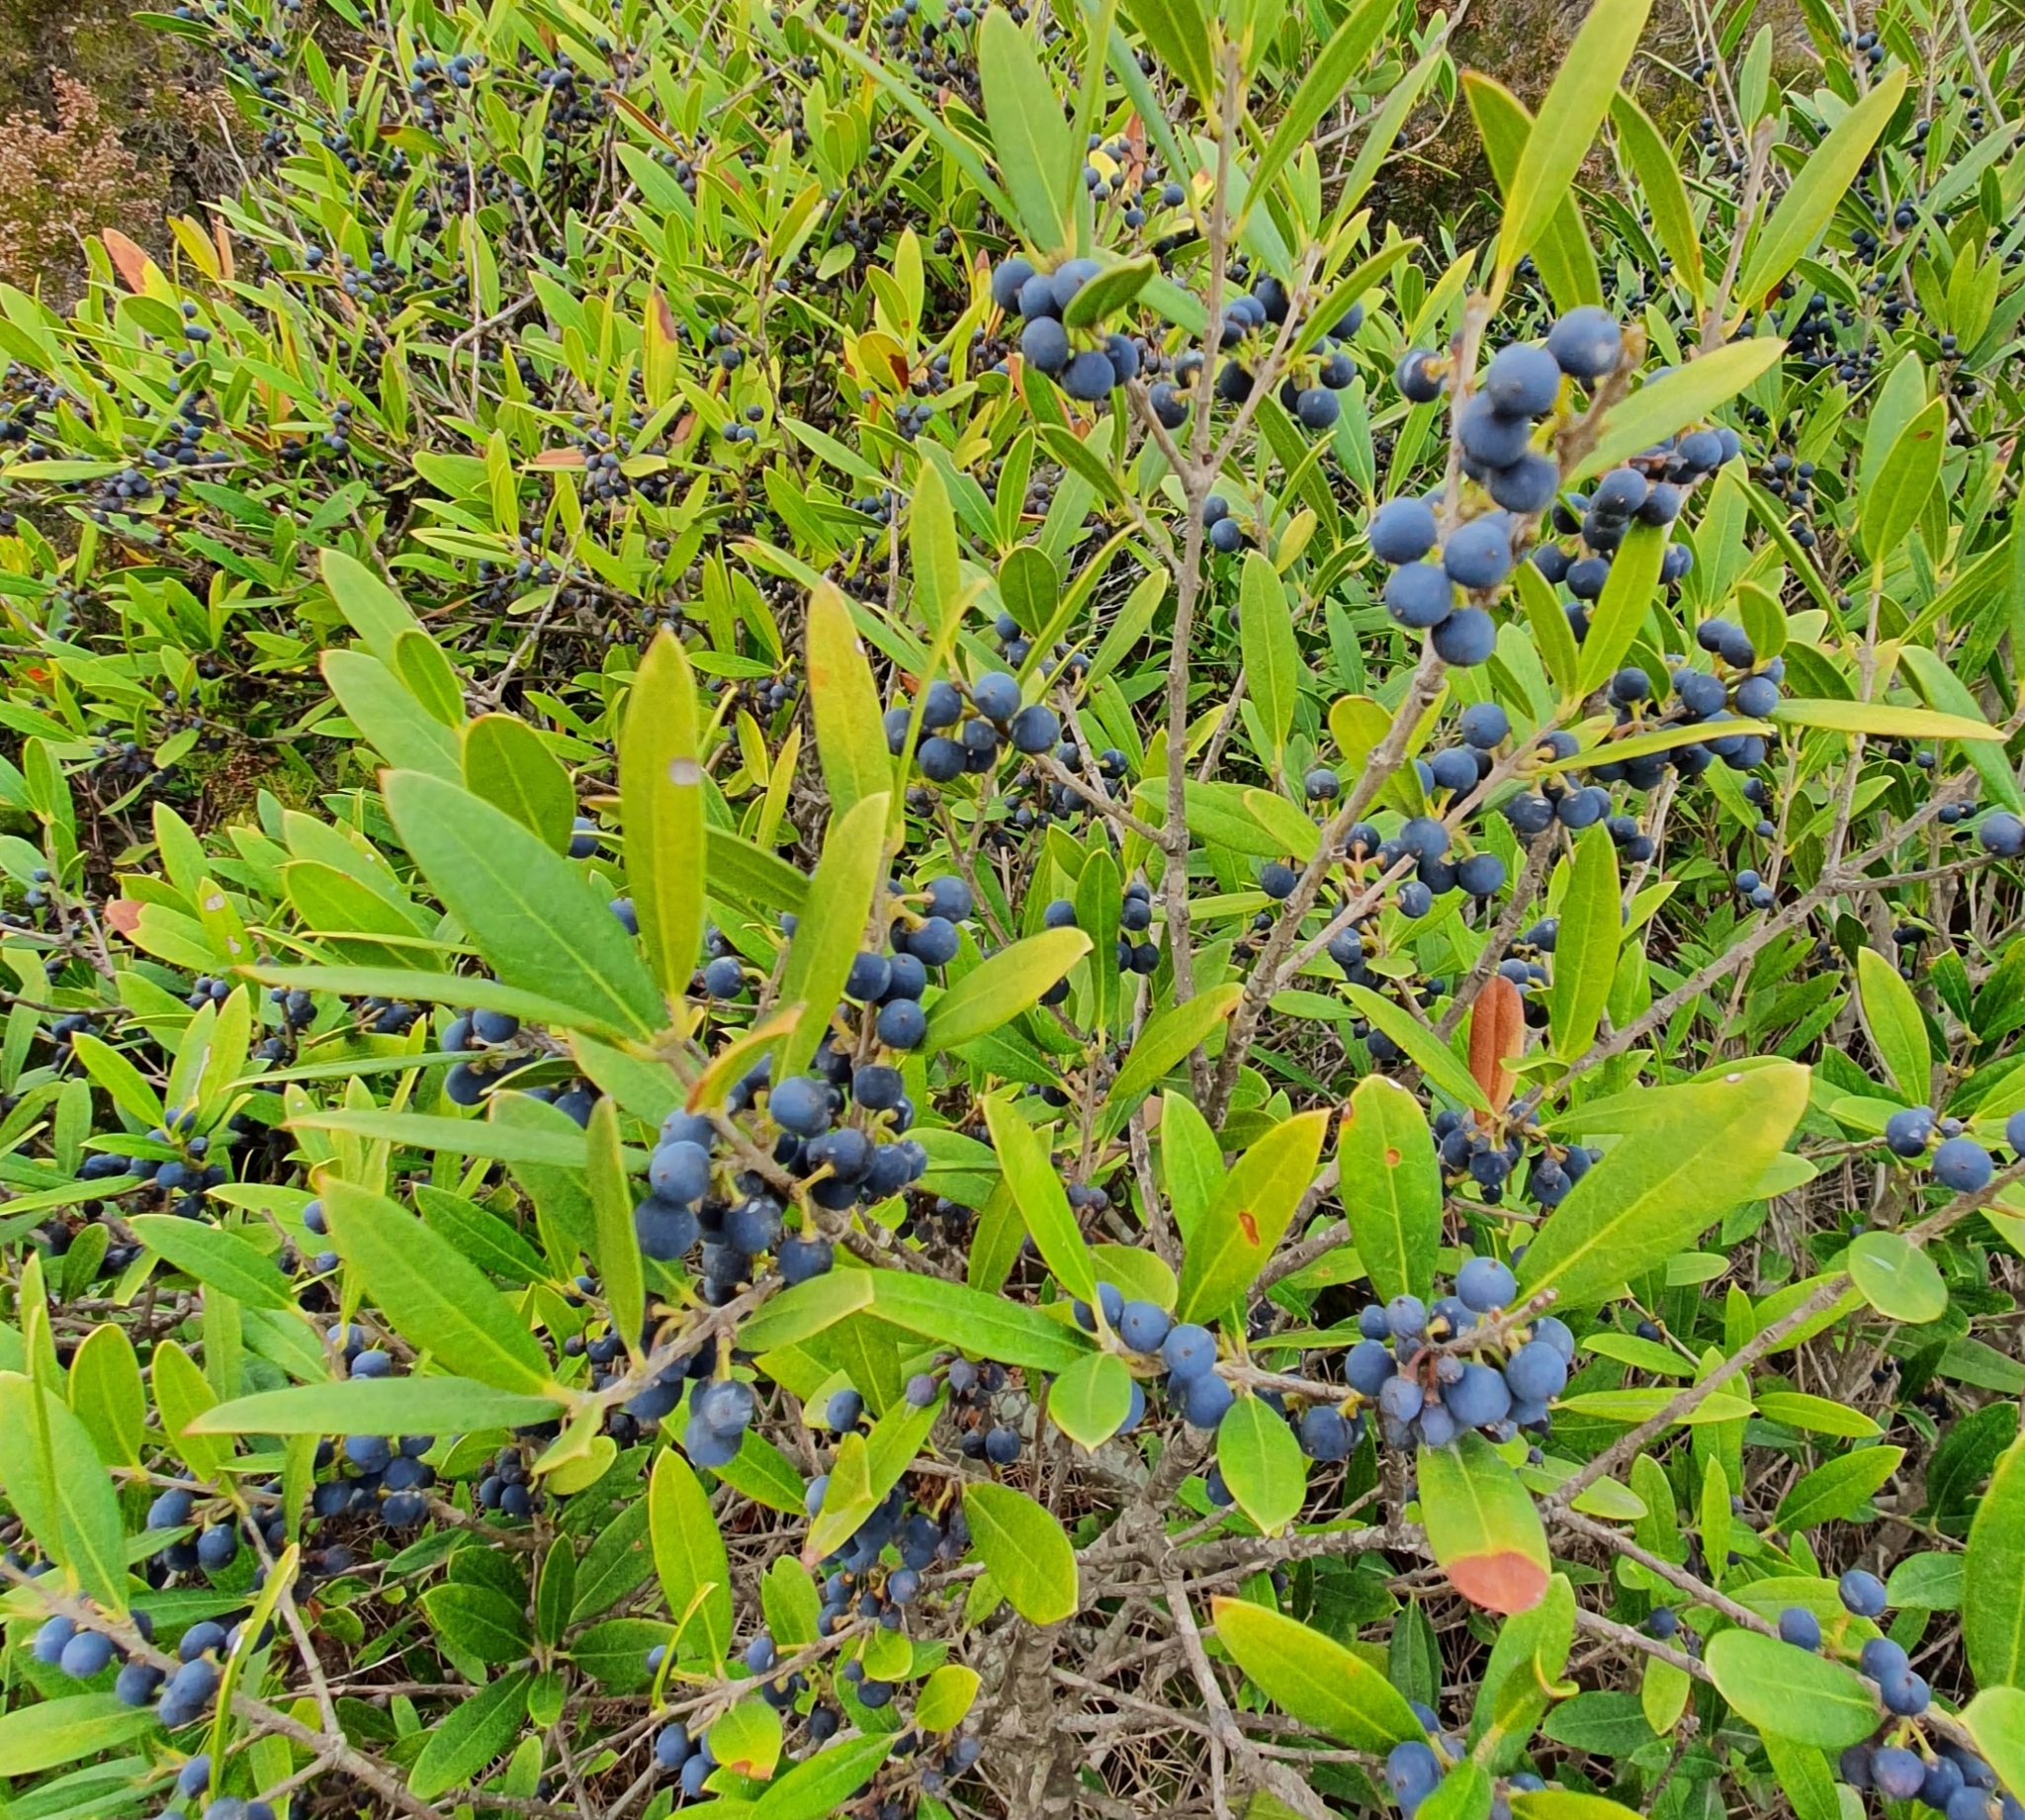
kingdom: Plantae
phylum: Tracheophyta
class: Magnoliopsida
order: Lamiales
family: Oleaceae
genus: Phillyrea
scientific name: Phillyrea angustifolia
